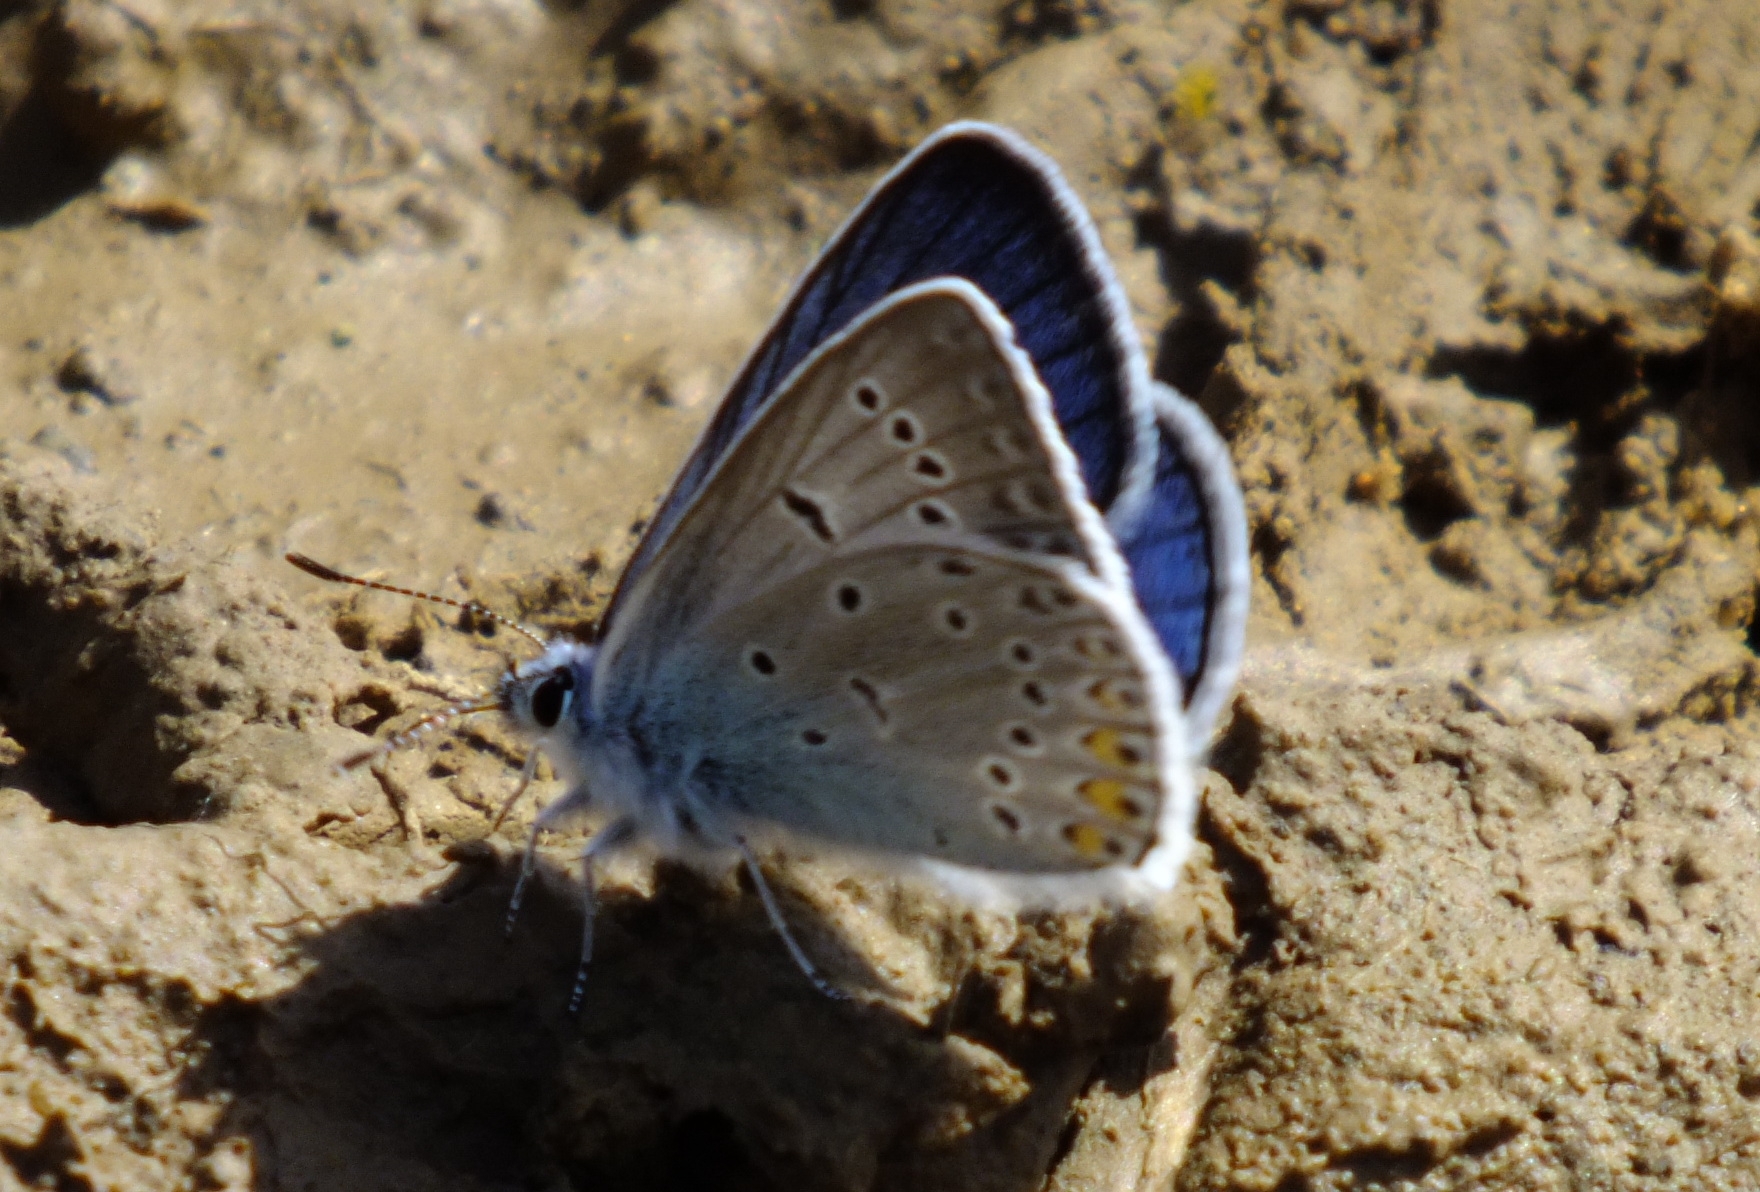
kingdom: Animalia
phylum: Arthropoda
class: Insecta
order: Lepidoptera
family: Lycaenidae
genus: Plebejus
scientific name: Plebejus amanda
